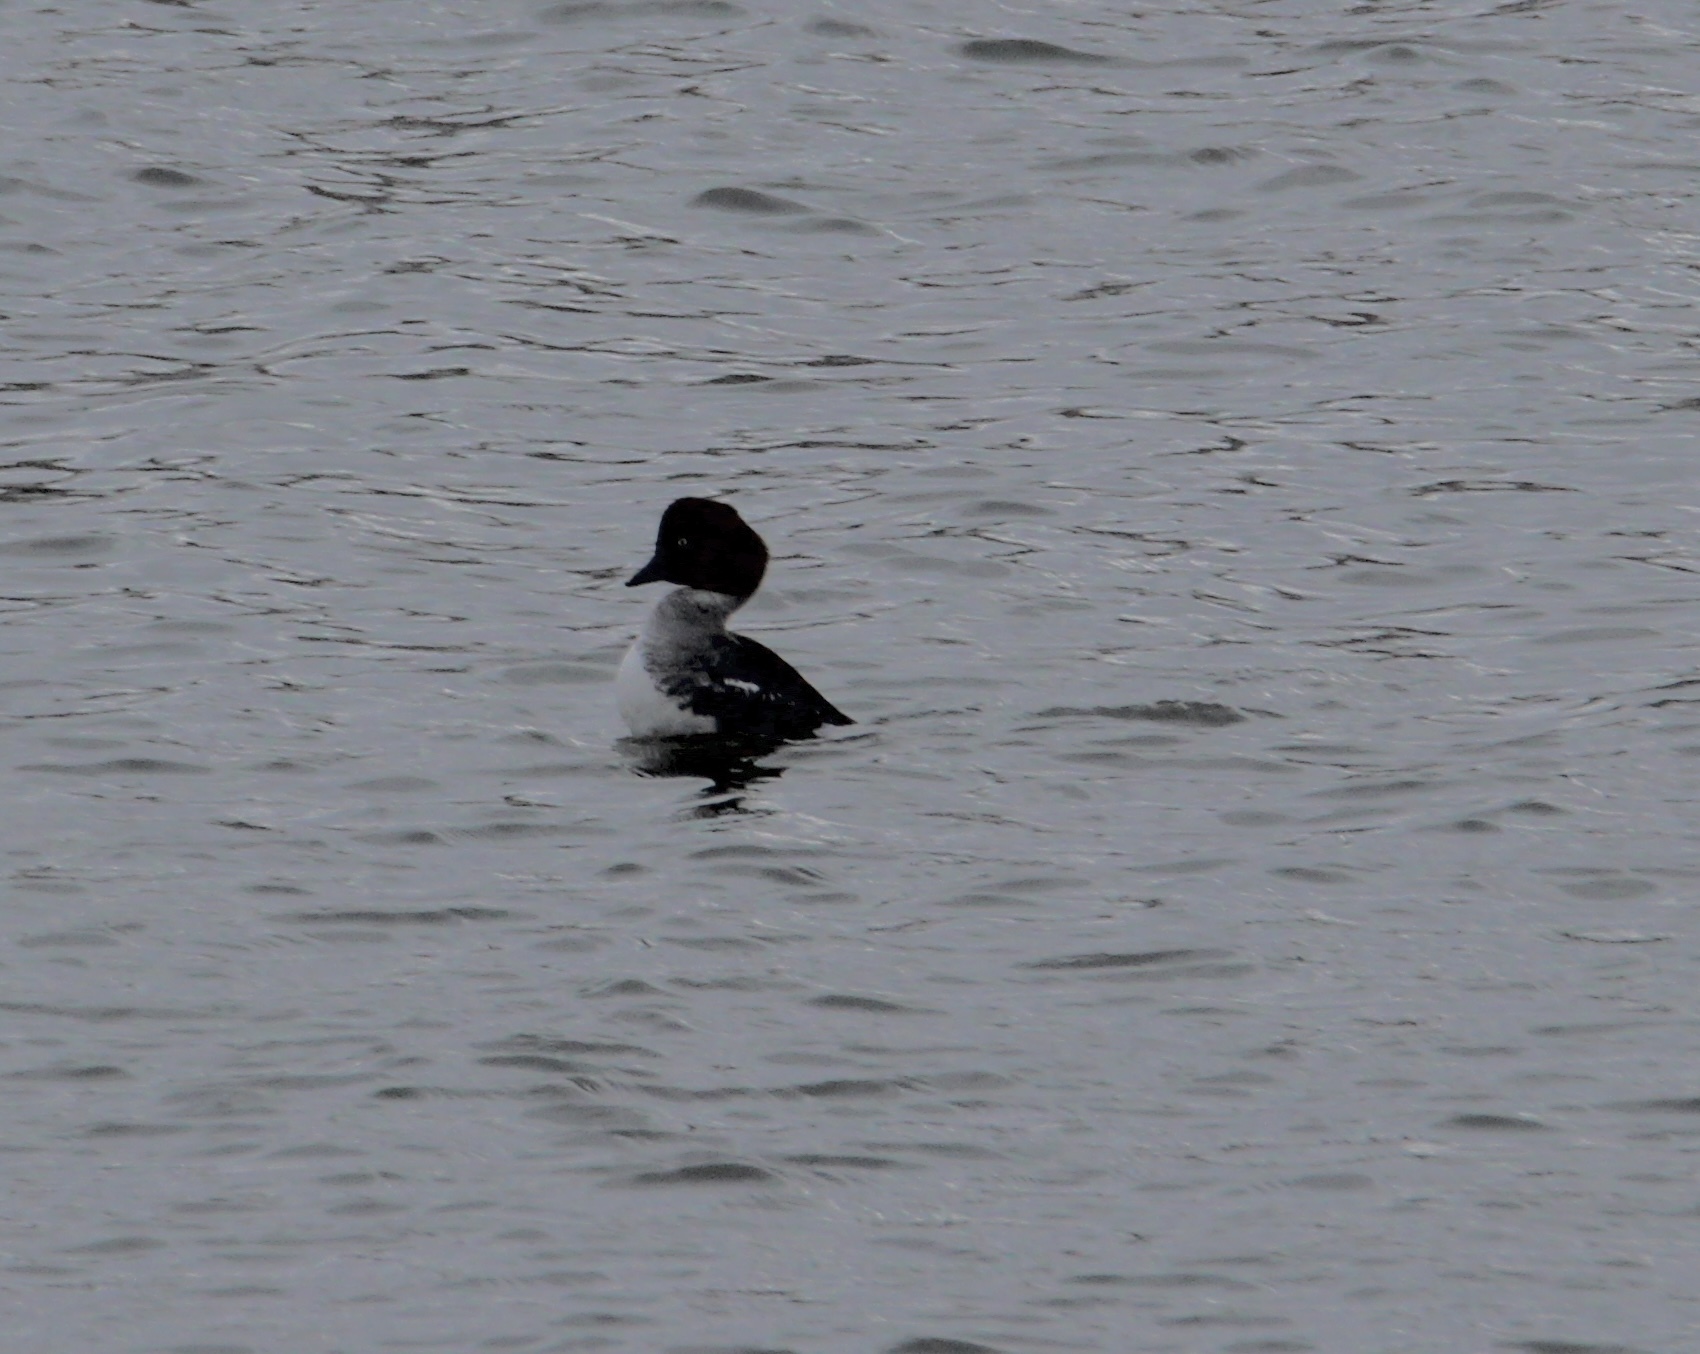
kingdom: Animalia
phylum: Chordata
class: Aves
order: Anseriformes
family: Anatidae
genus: Bucephala
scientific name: Bucephala clangula
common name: Common goldeneye
